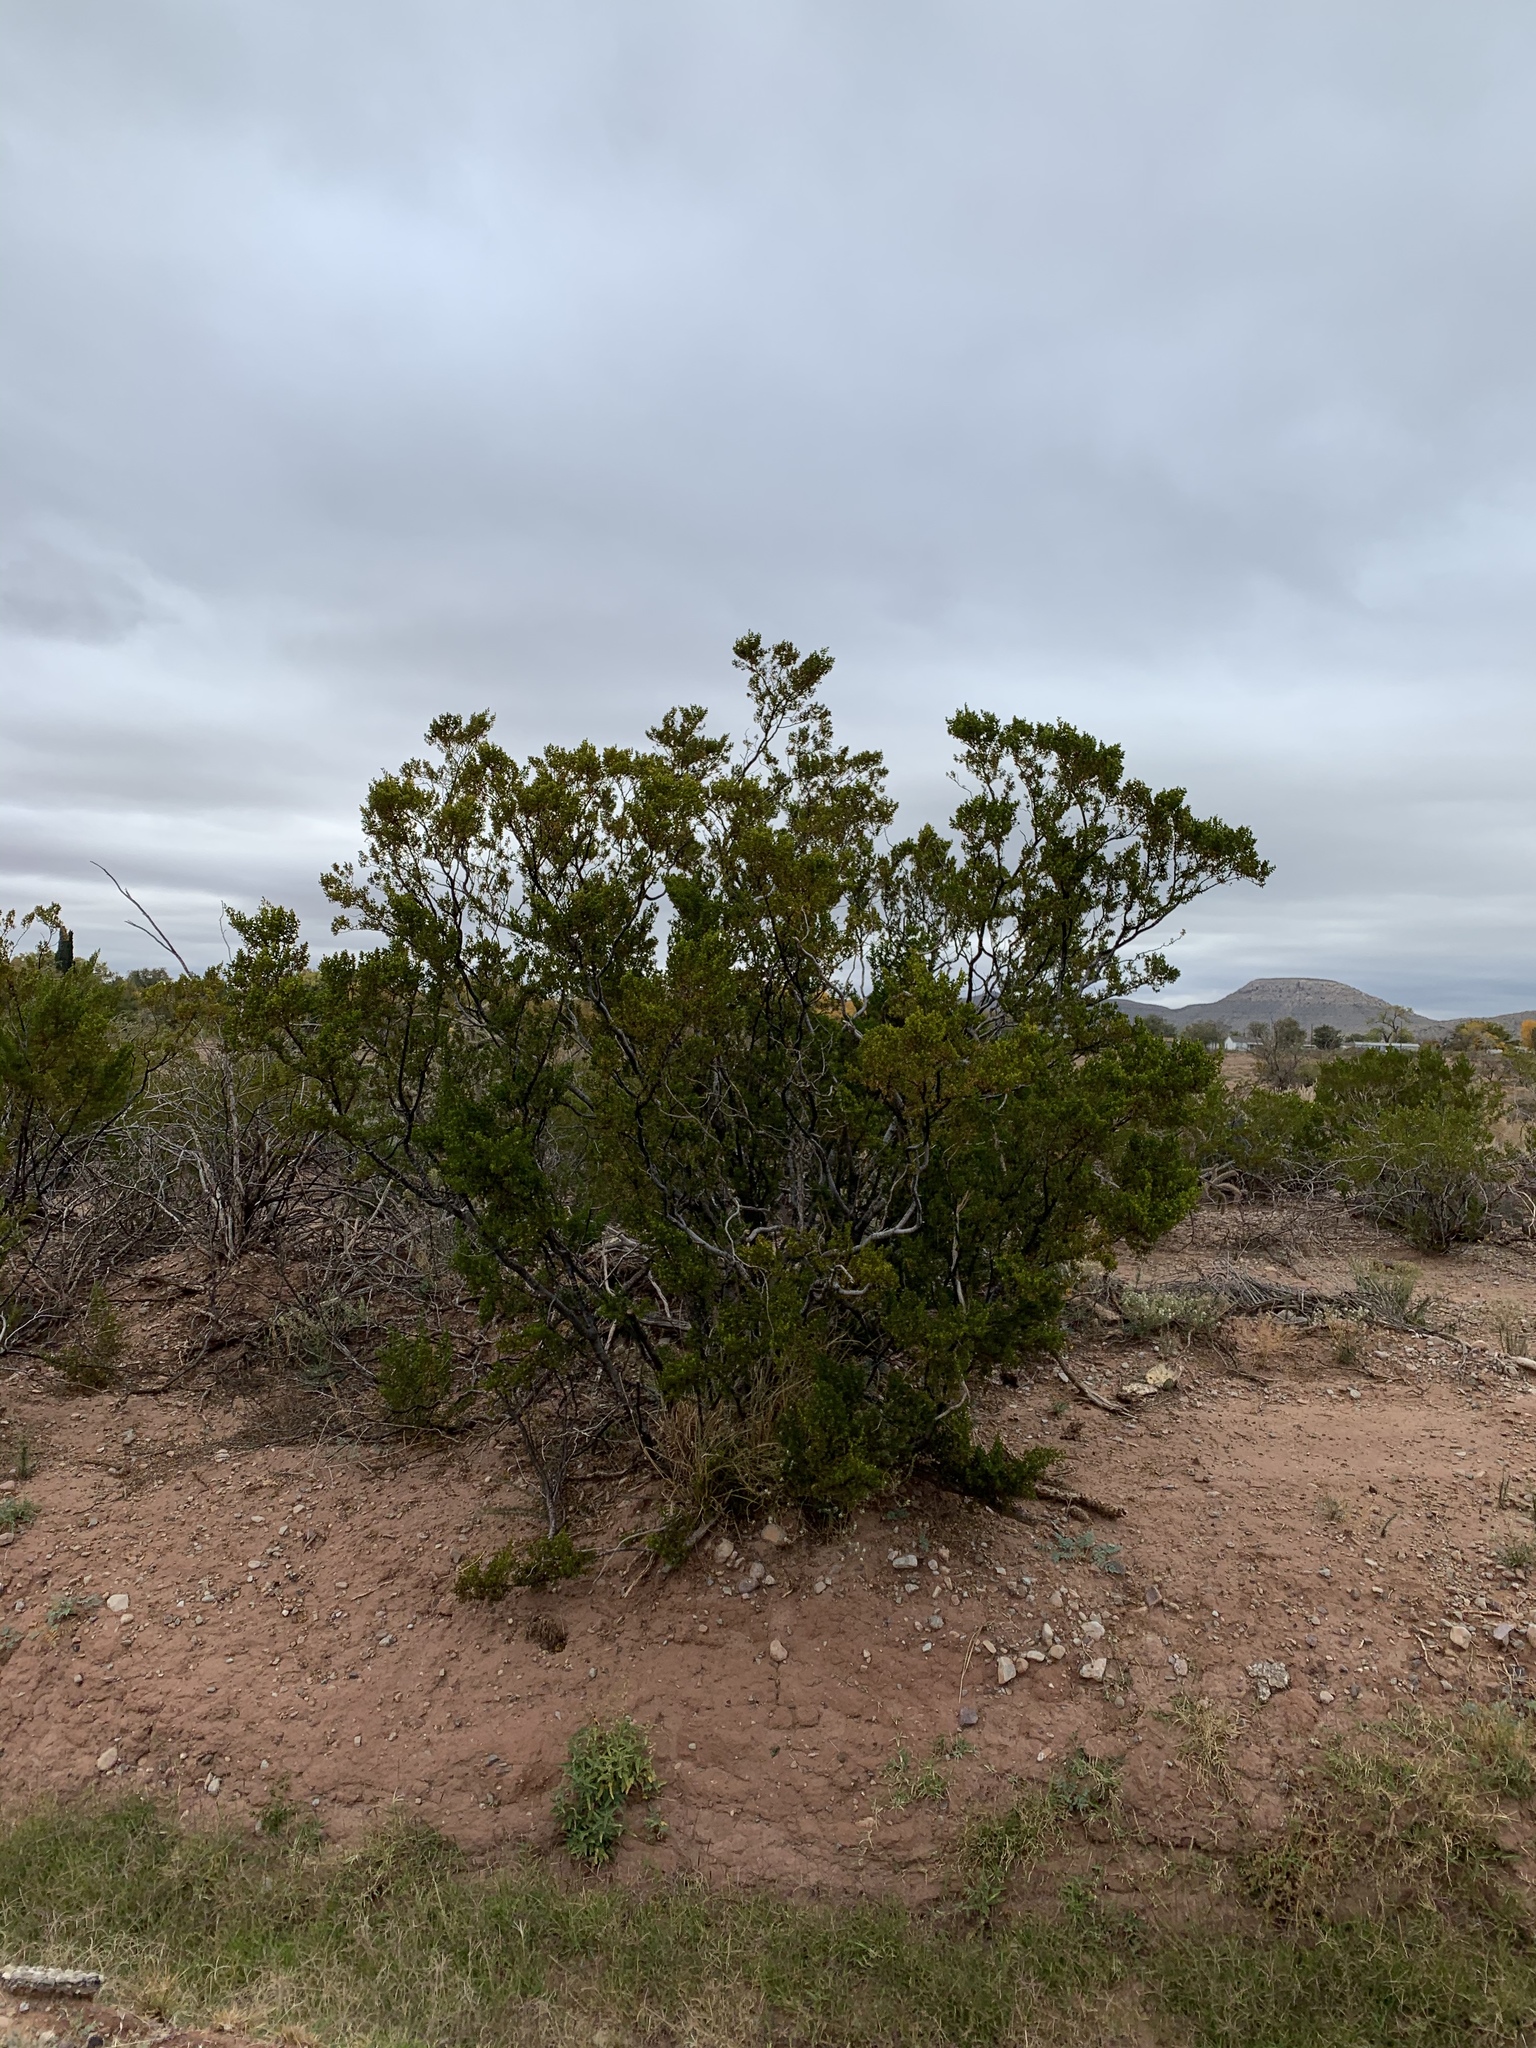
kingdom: Plantae
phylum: Tracheophyta
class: Magnoliopsida
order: Zygophyllales
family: Zygophyllaceae
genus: Larrea
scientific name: Larrea tridentata
